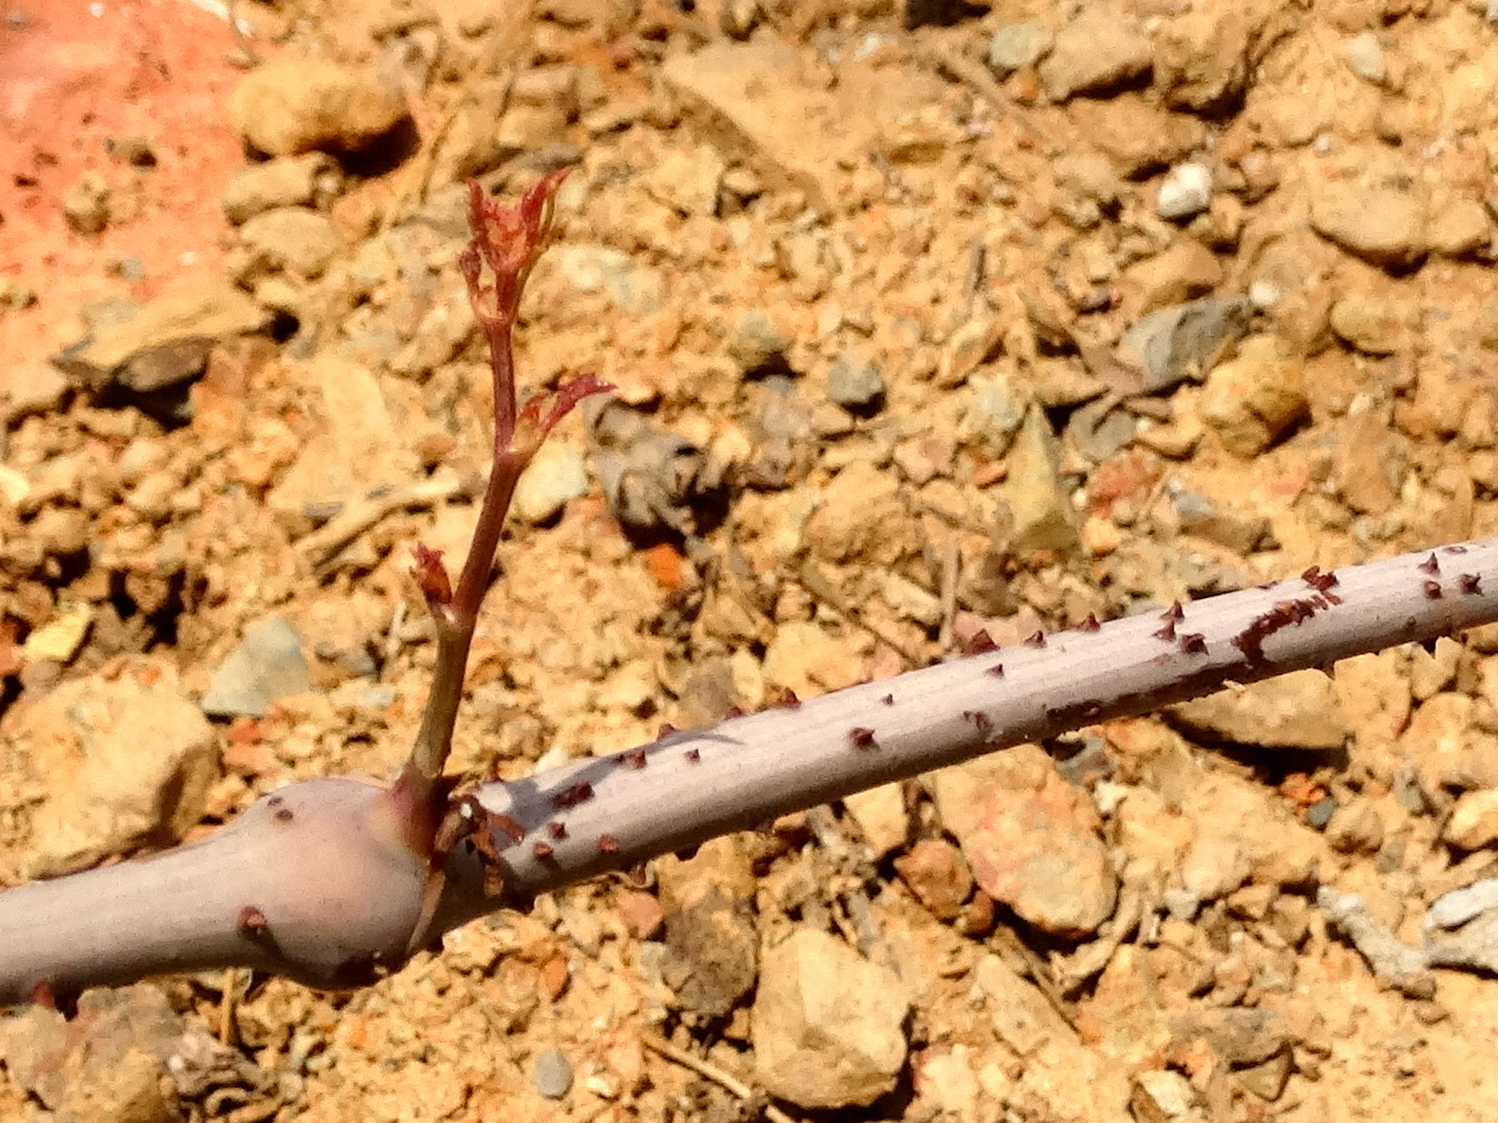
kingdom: Plantae
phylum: Tracheophyta
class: Magnoliopsida
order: Vitales
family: Vitaceae
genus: Parthenocissus
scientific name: Parthenocissus quinquefolia
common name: Virginia-creeper
